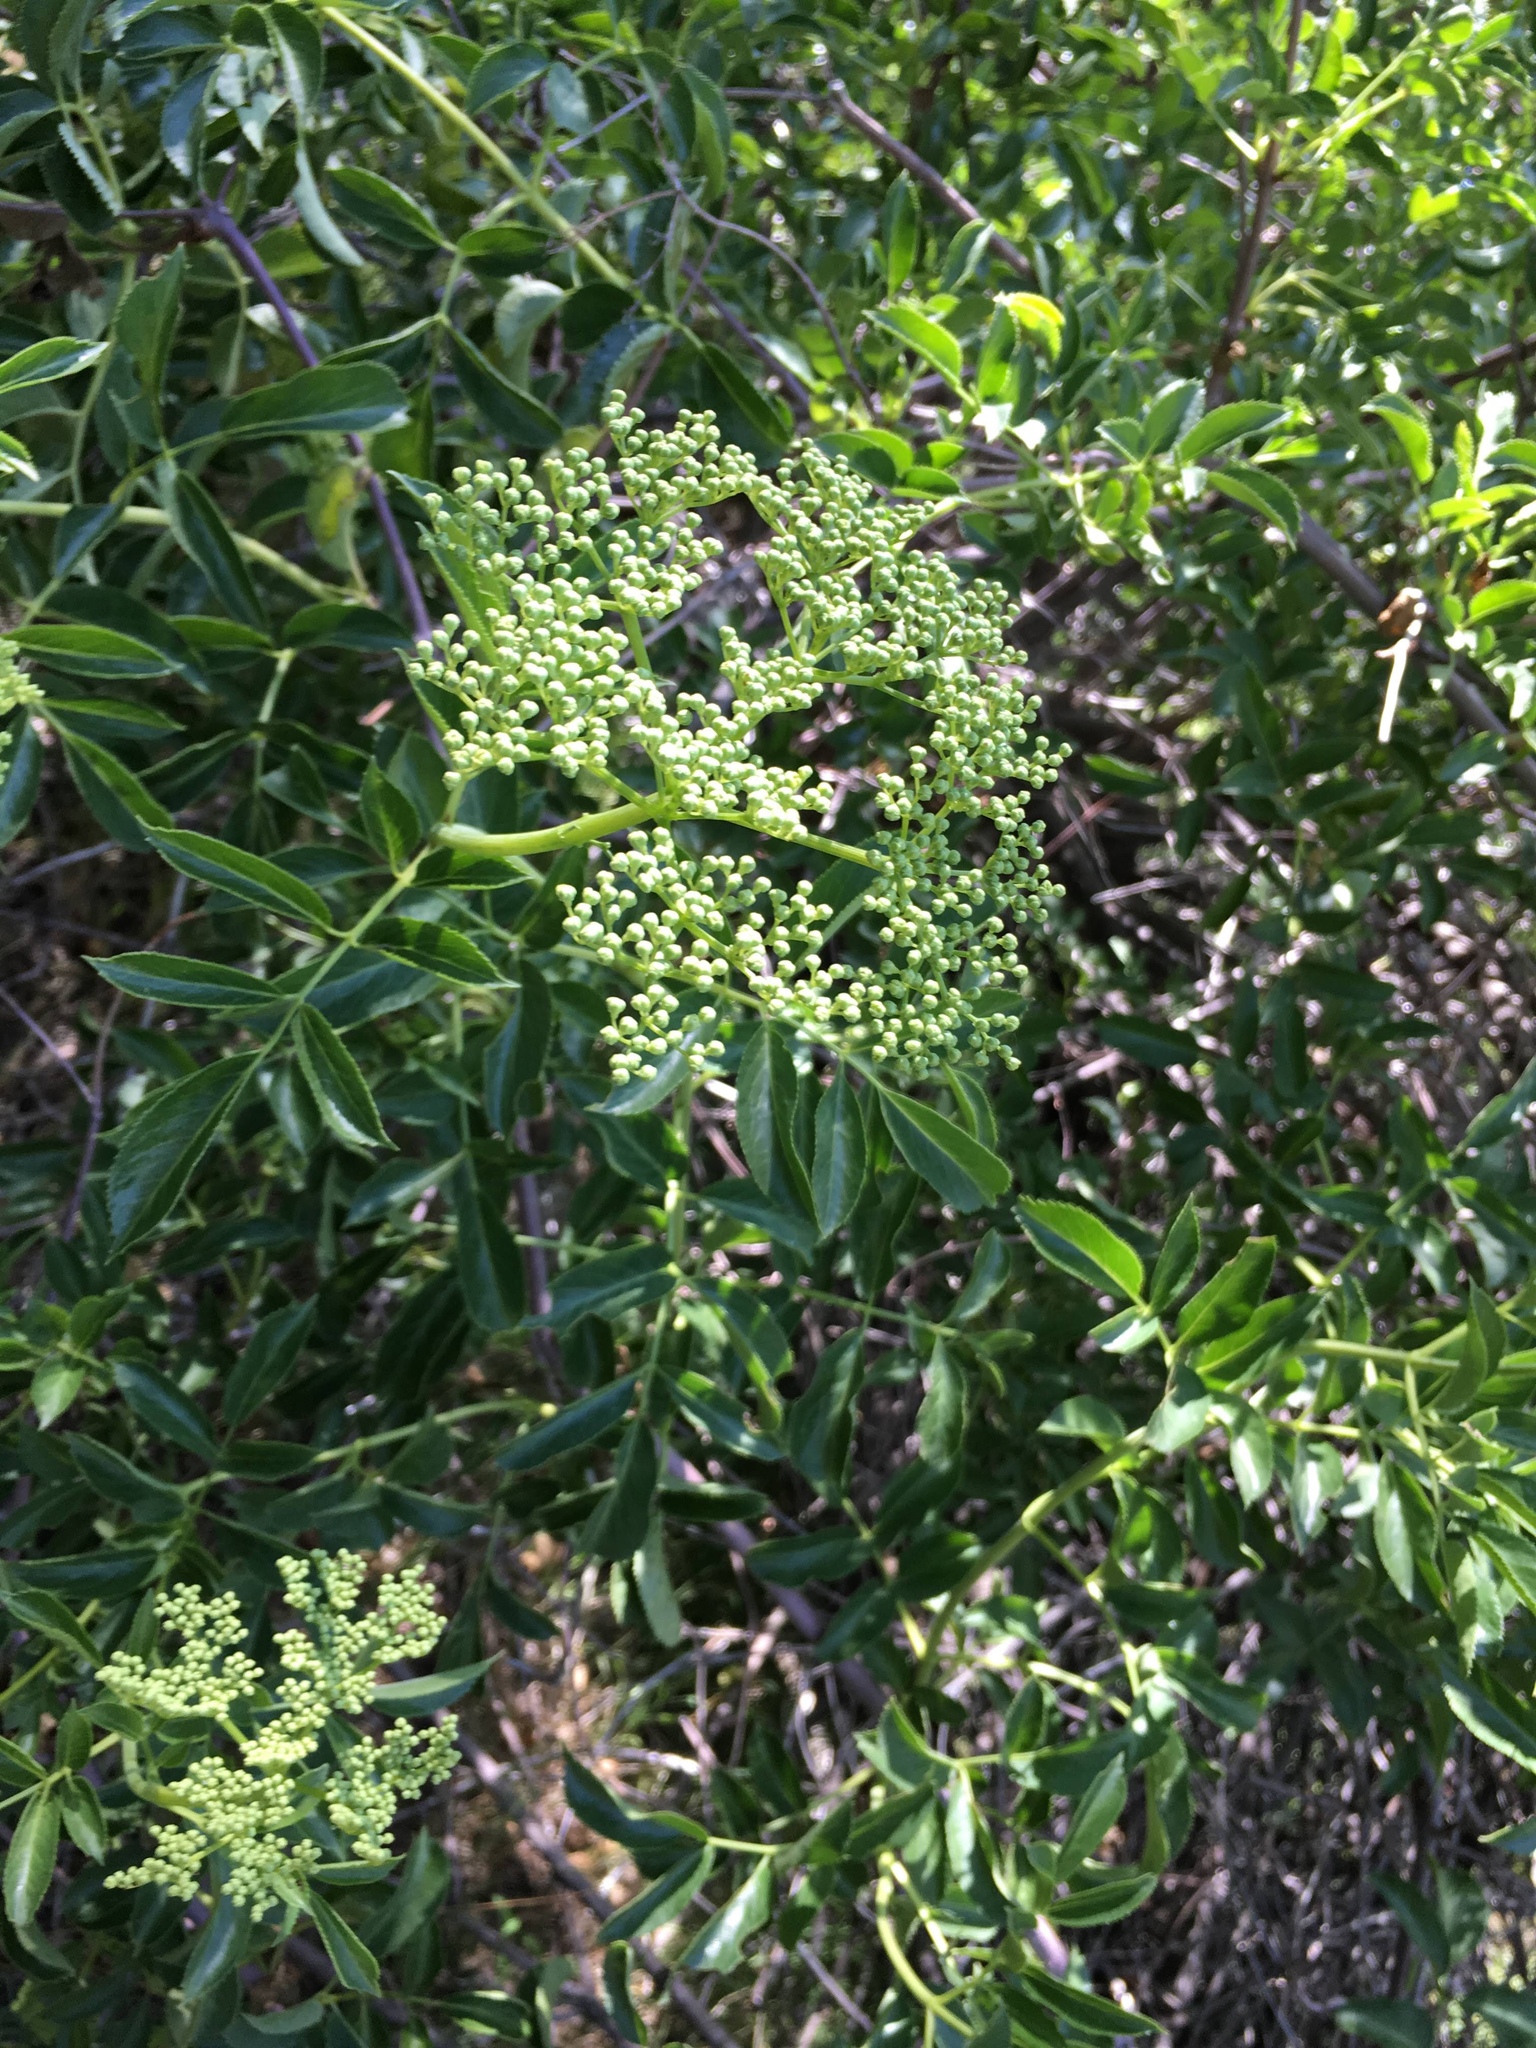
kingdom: Plantae
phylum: Tracheophyta
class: Magnoliopsida
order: Dipsacales
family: Viburnaceae
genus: Sambucus
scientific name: Sambucus cerulea
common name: Blue elder
